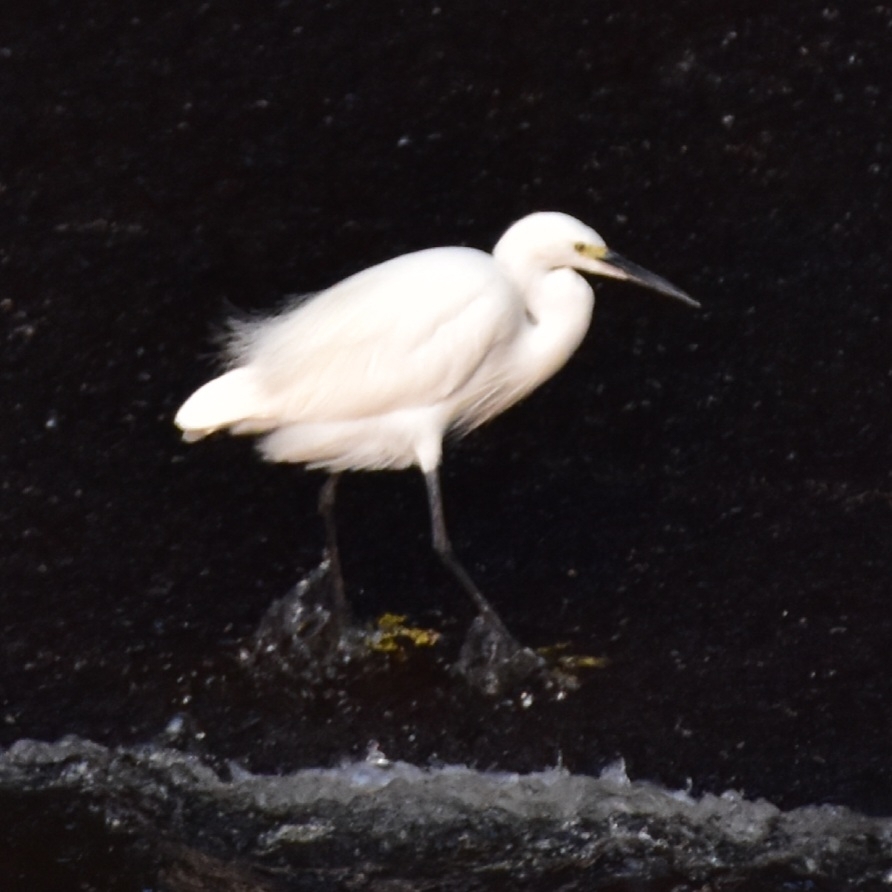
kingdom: Animalia
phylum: Chordata
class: Aves
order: Pelecaniformes
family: Ardeidae
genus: Egretta
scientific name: Egretta garzetta
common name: Little egret
